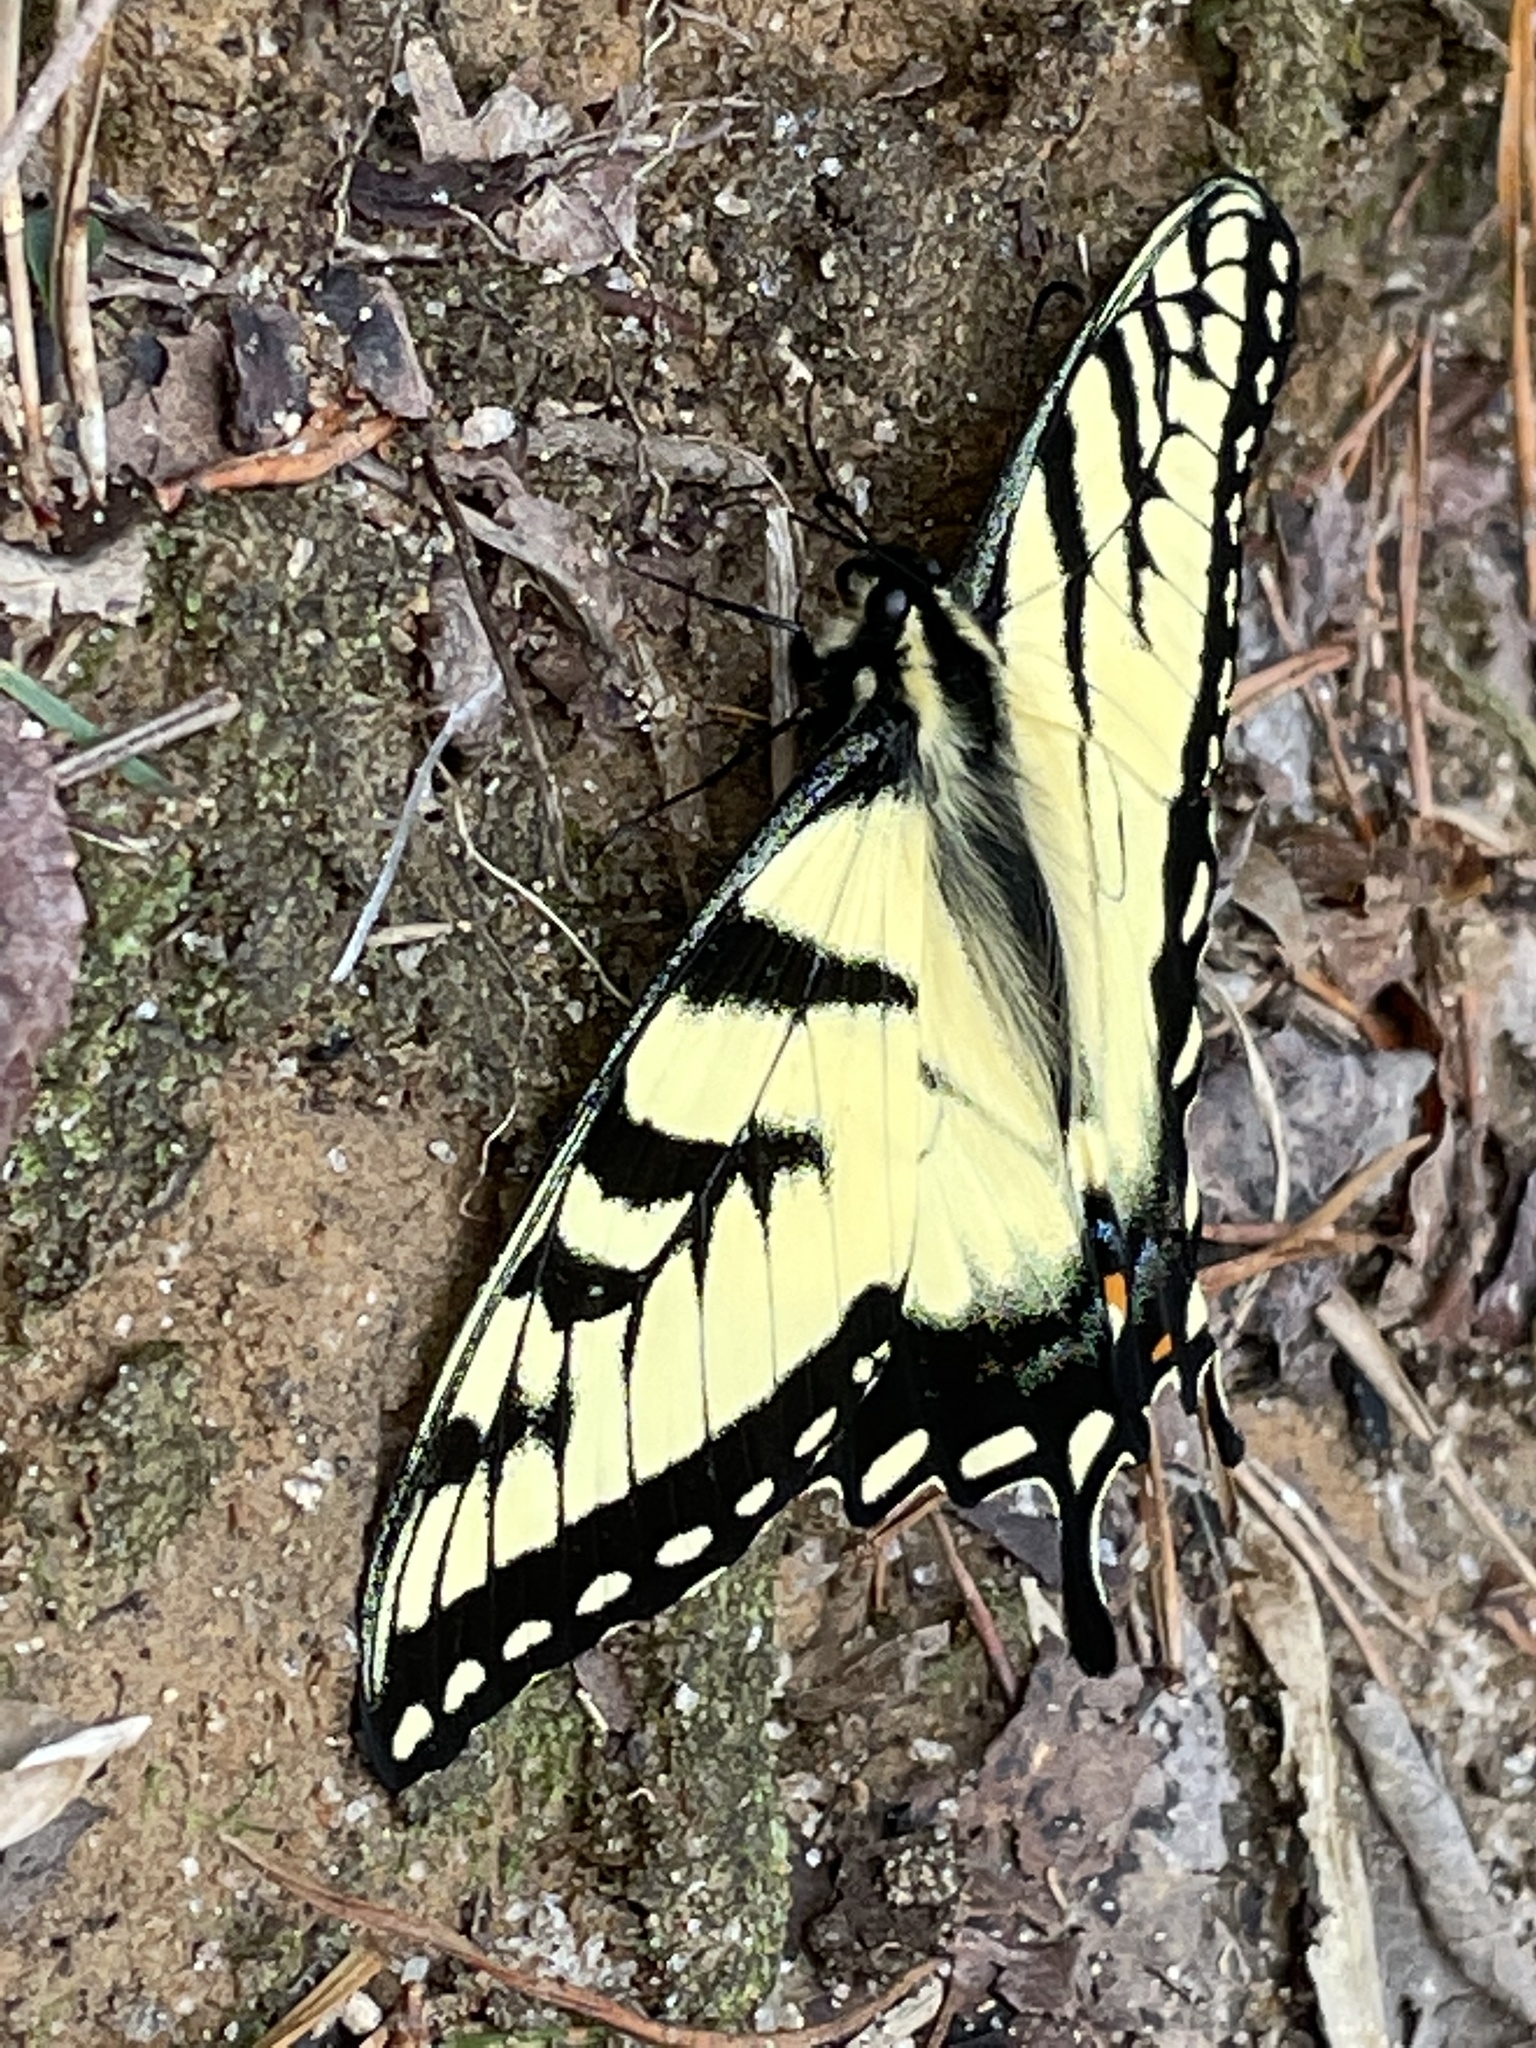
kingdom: Animalia
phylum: Arthropoda
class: Insecta
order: Lepidoptera
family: Papilionidae
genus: Papilio
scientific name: Papilio glaucus
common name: Tiger swallowtail
